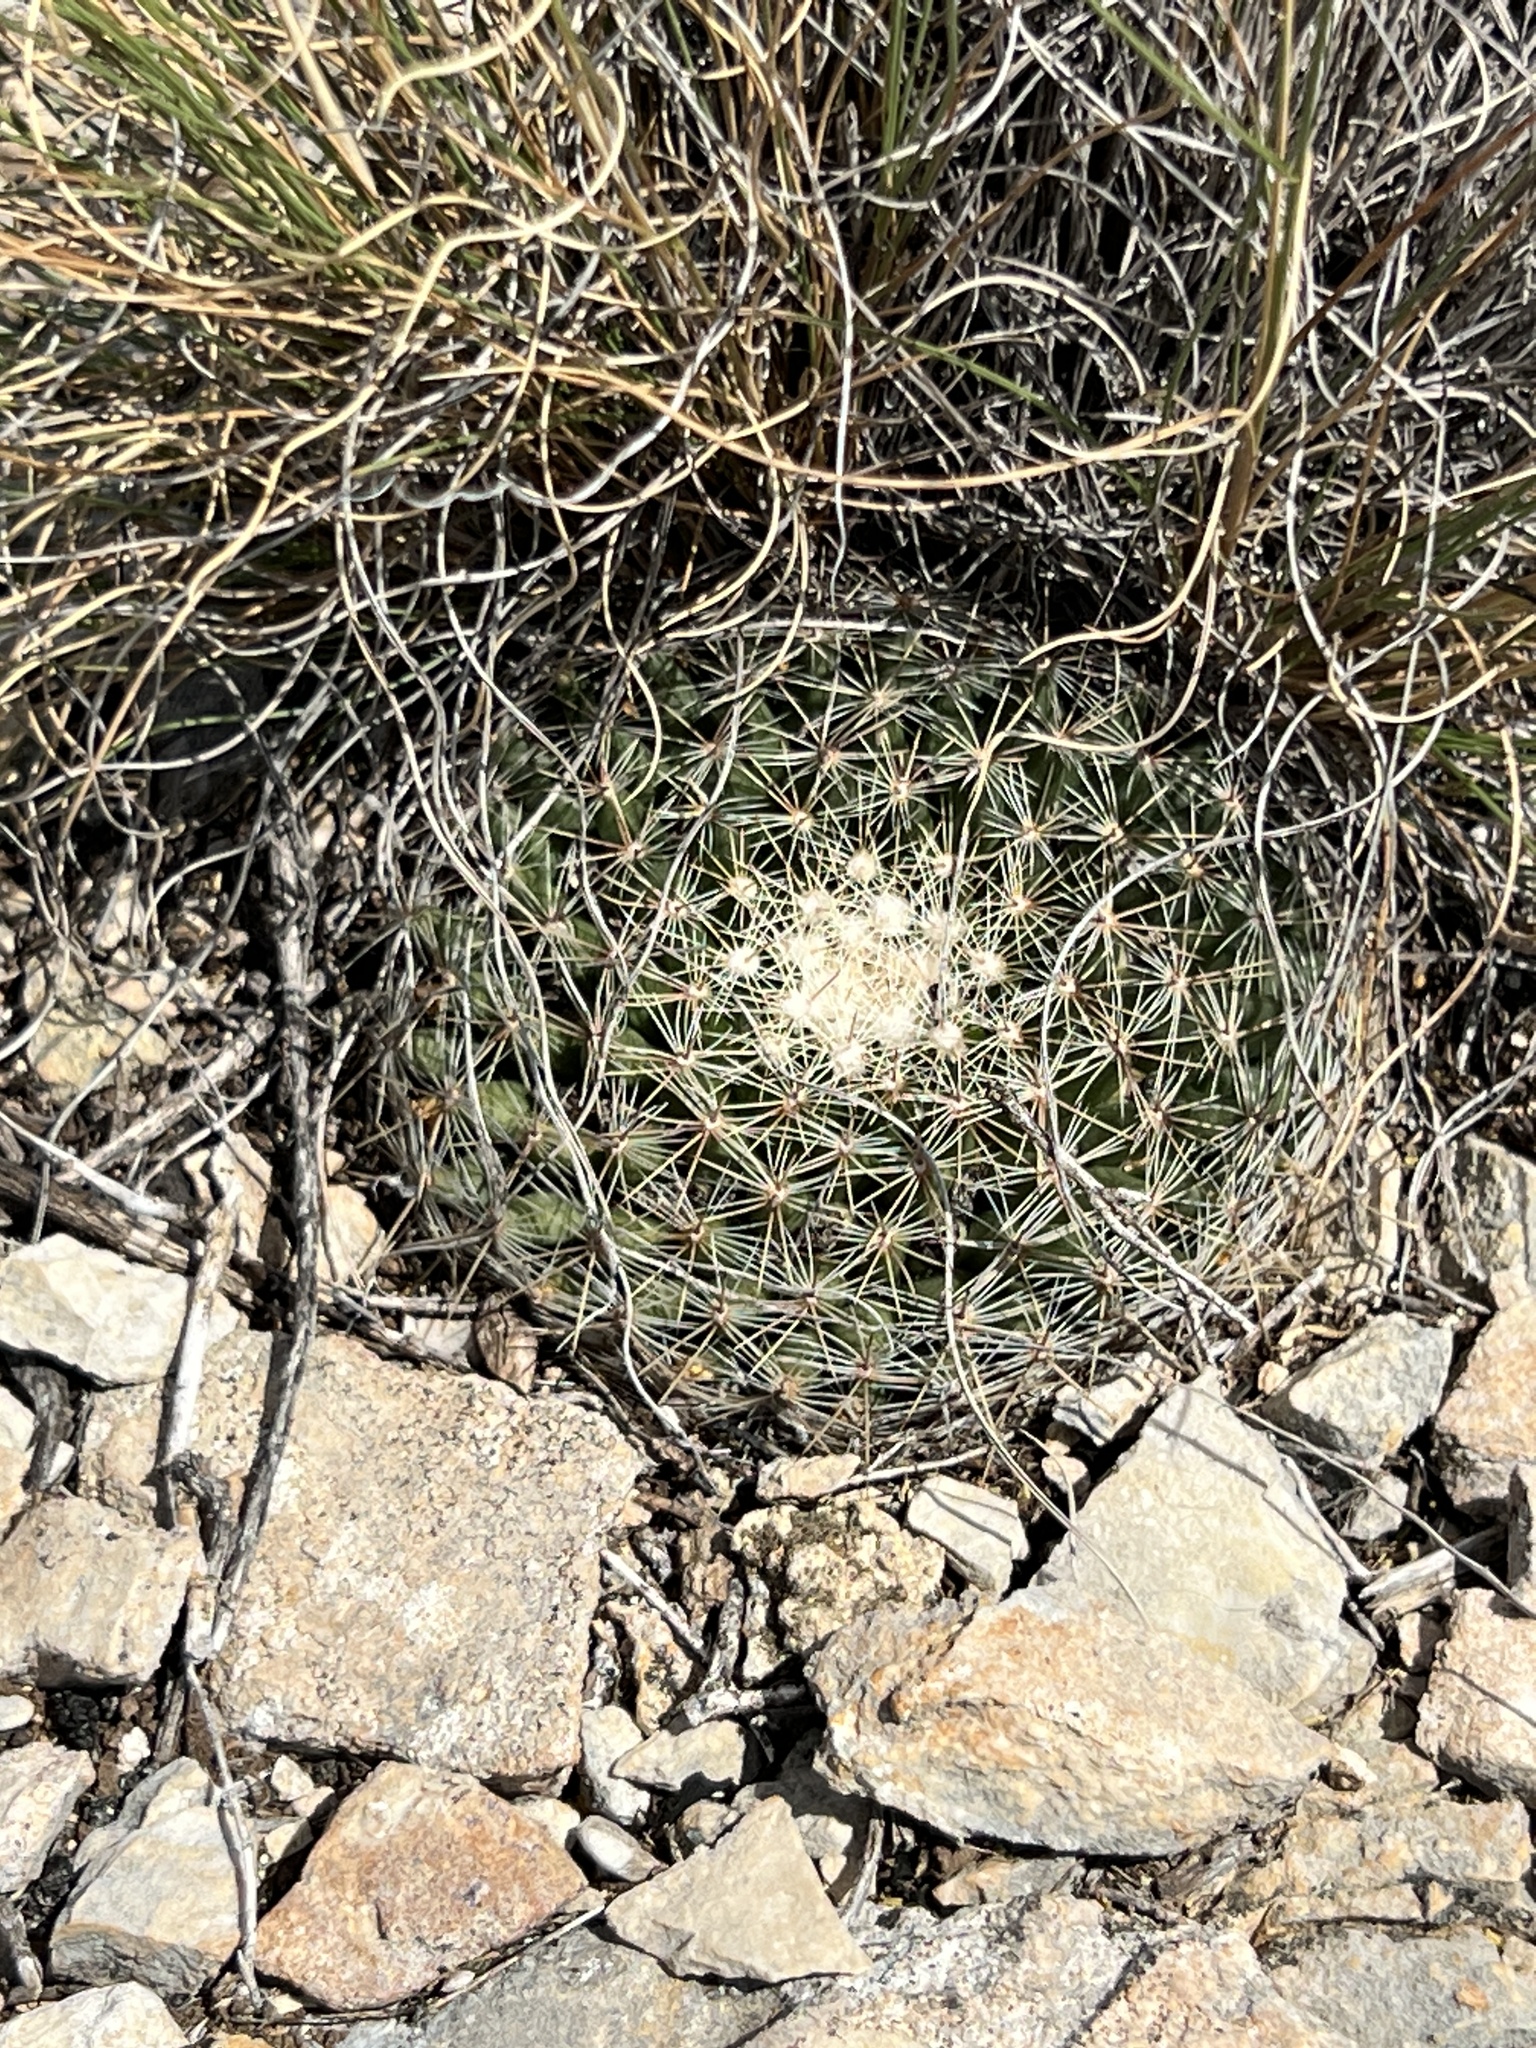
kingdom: Plantae
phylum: Tracheophyta
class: Magnoliopsida
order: Caryophyllales
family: Cactaceae
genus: Mammillaria
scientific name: Mammillaria heyderi
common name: Little nipple cactus
